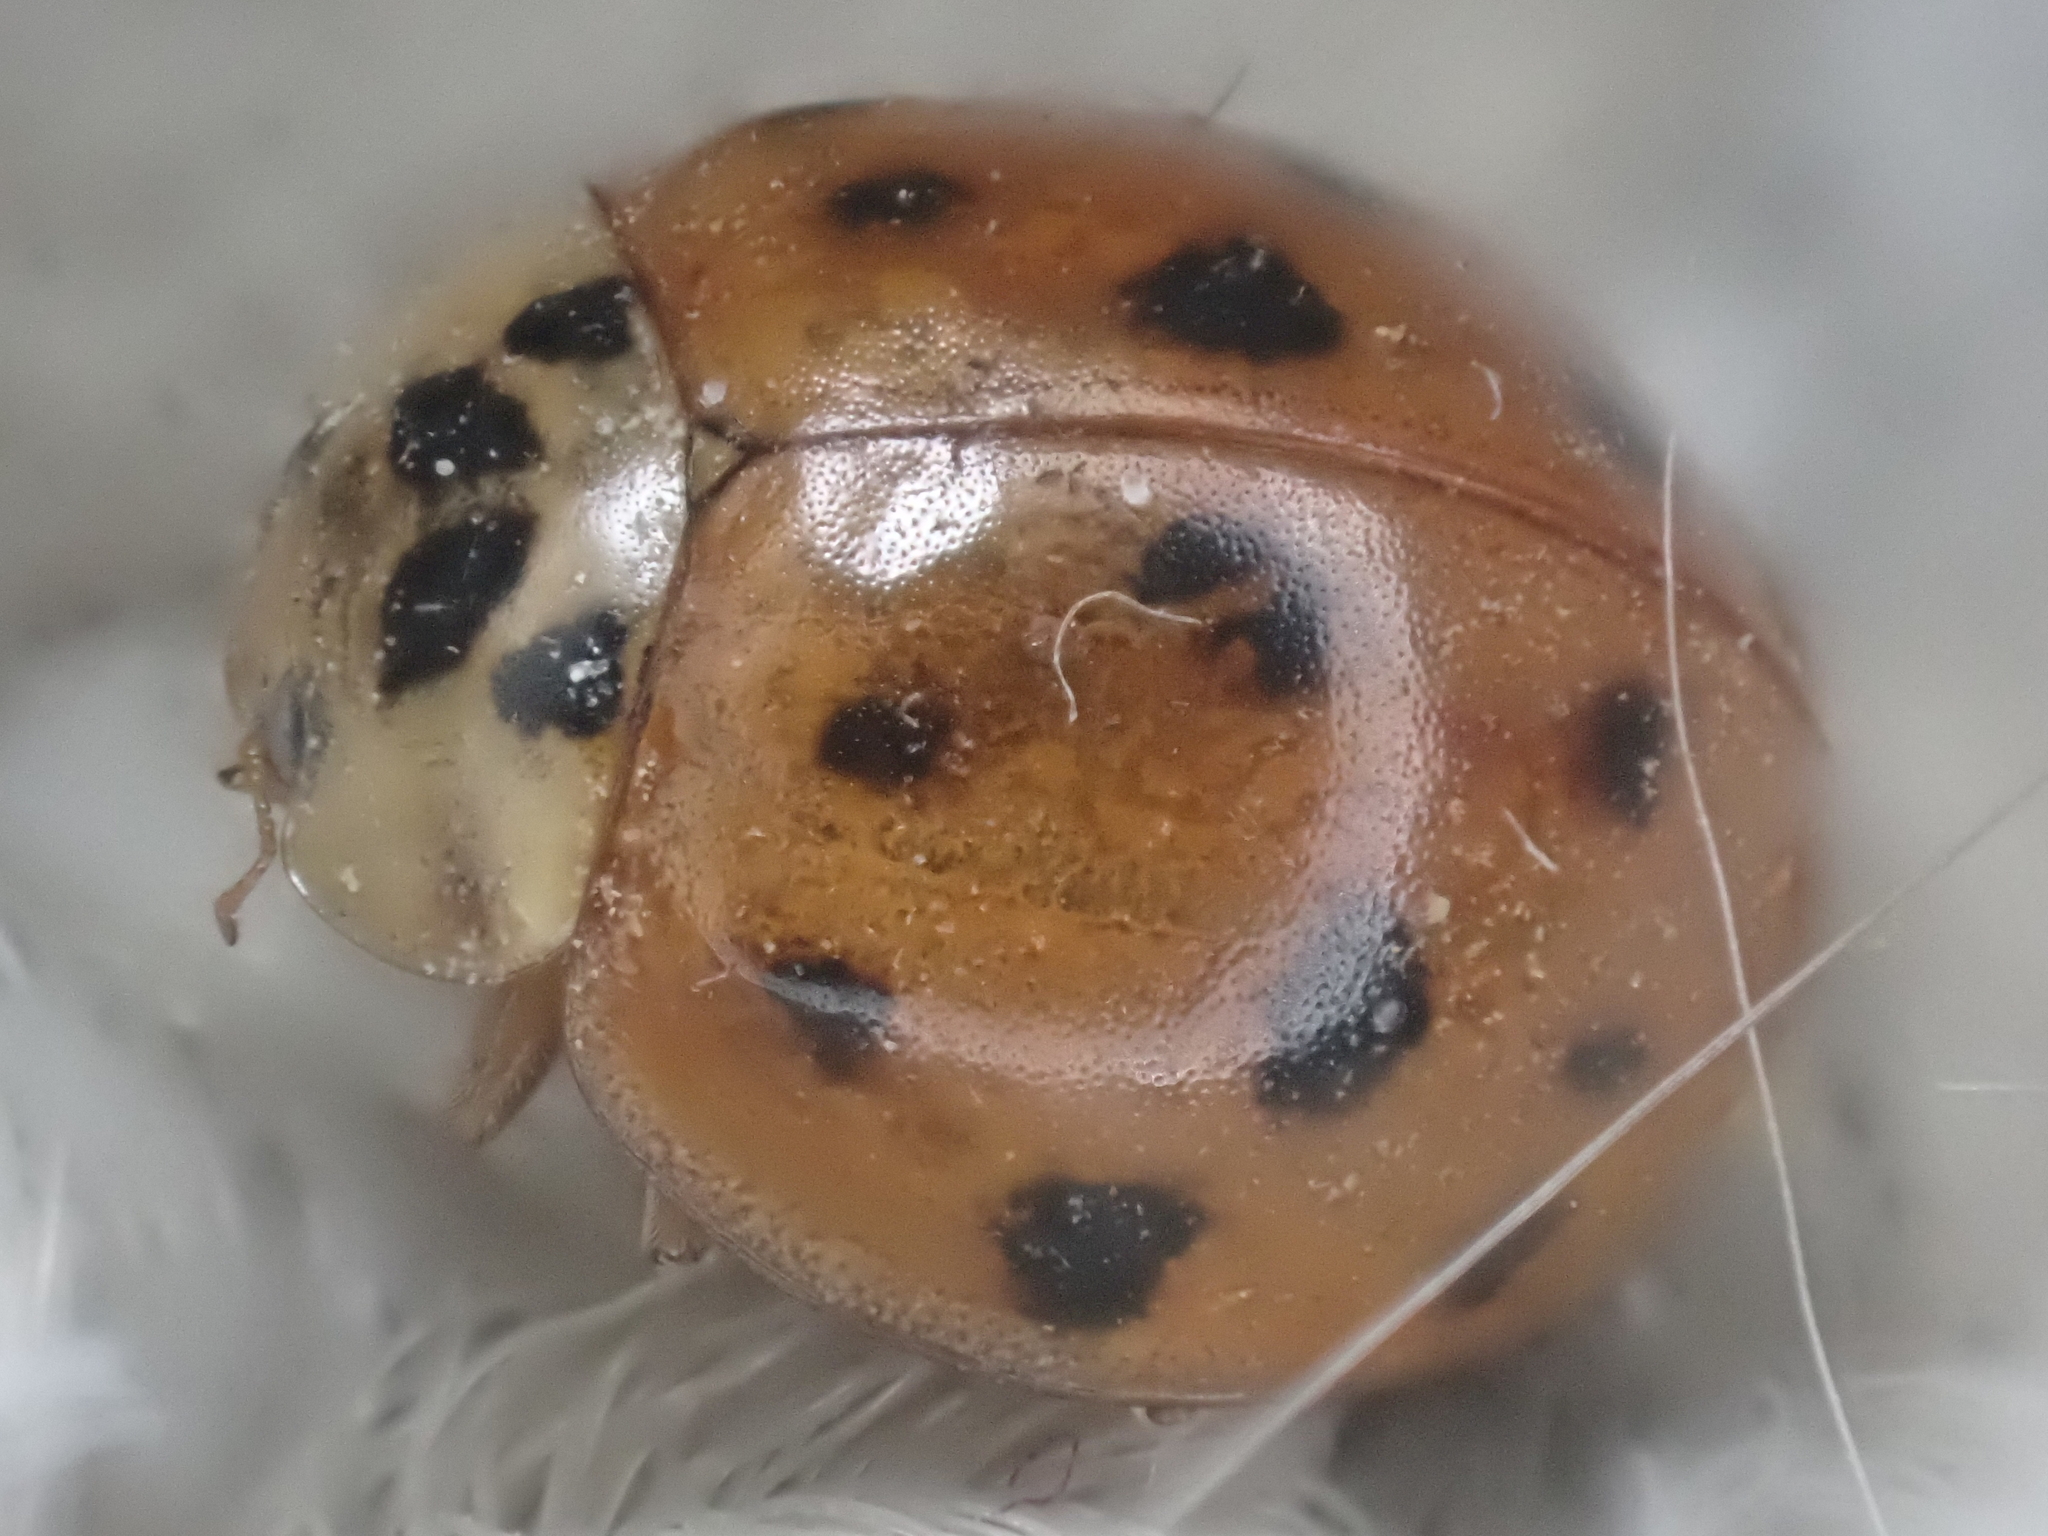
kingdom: Animalia
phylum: Arthropoda
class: Insecta
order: Coleoptera
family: Coccinellidae
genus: Harmonia
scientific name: Harmonia axyridis
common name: Harlequin ladybird
